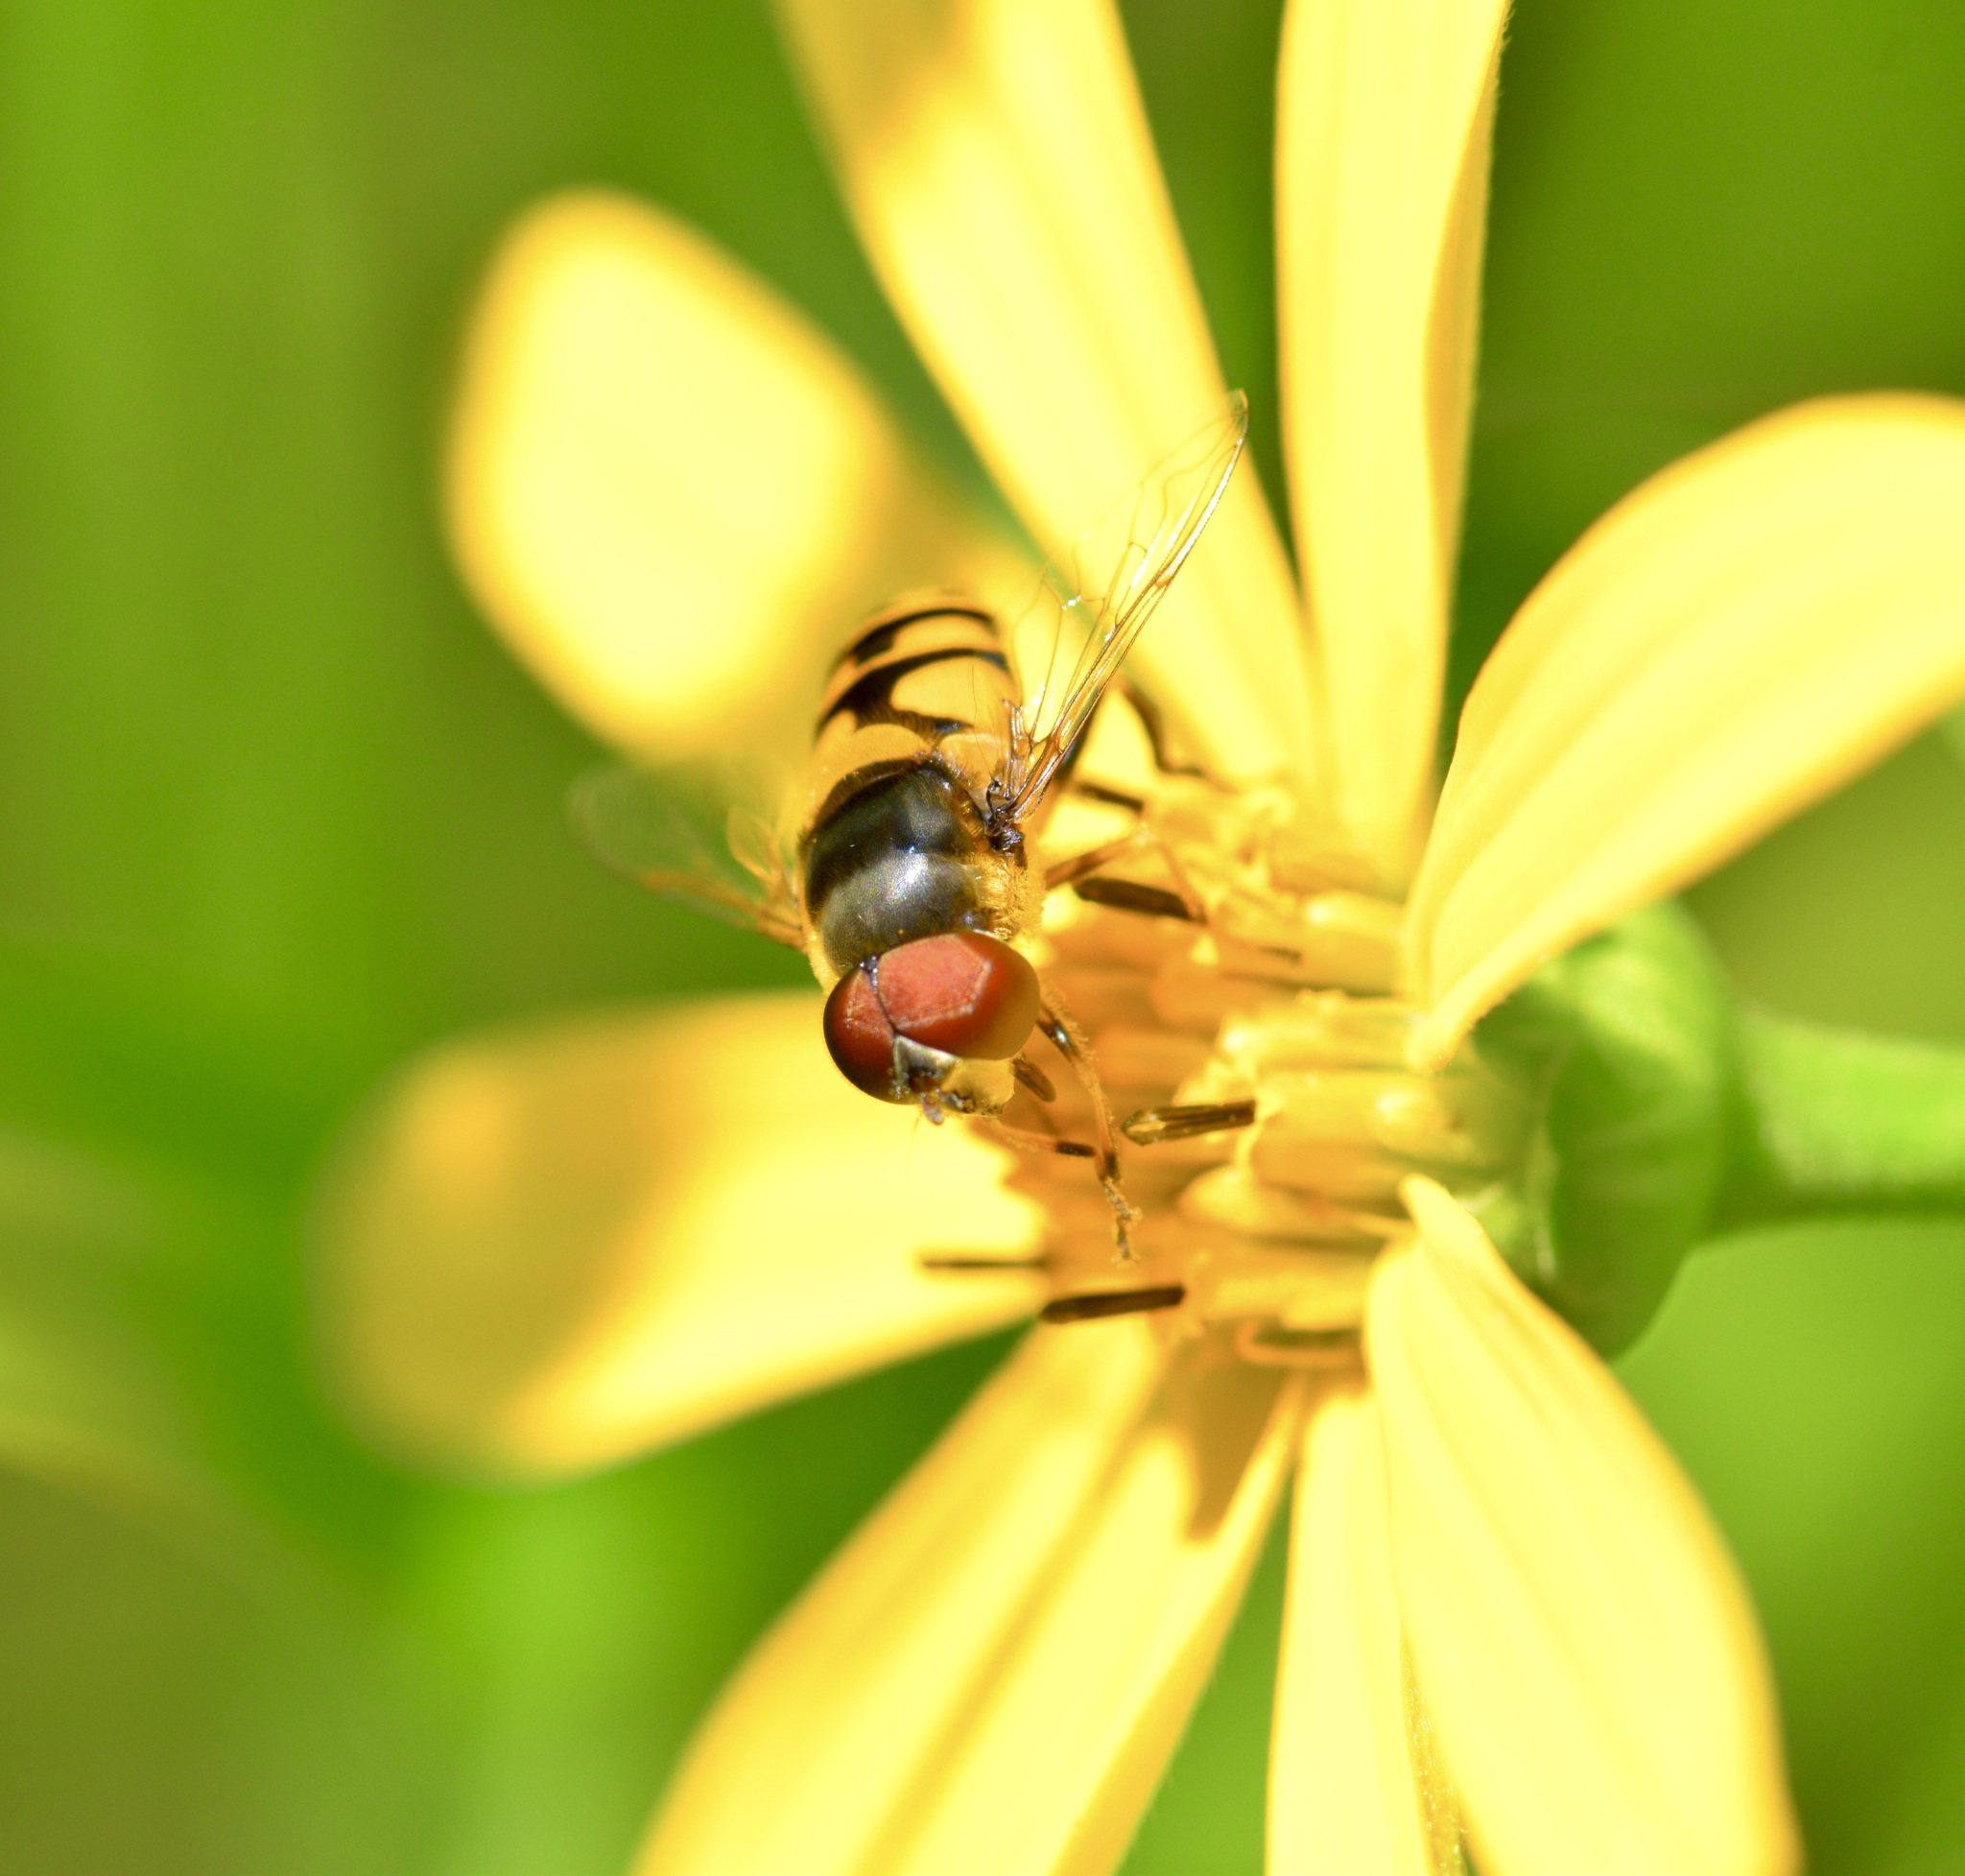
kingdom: Animalia
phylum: Arthropoda
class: Insecta
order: Diptera
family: Syrphidae
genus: Eristalis
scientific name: Eristalis transversa
